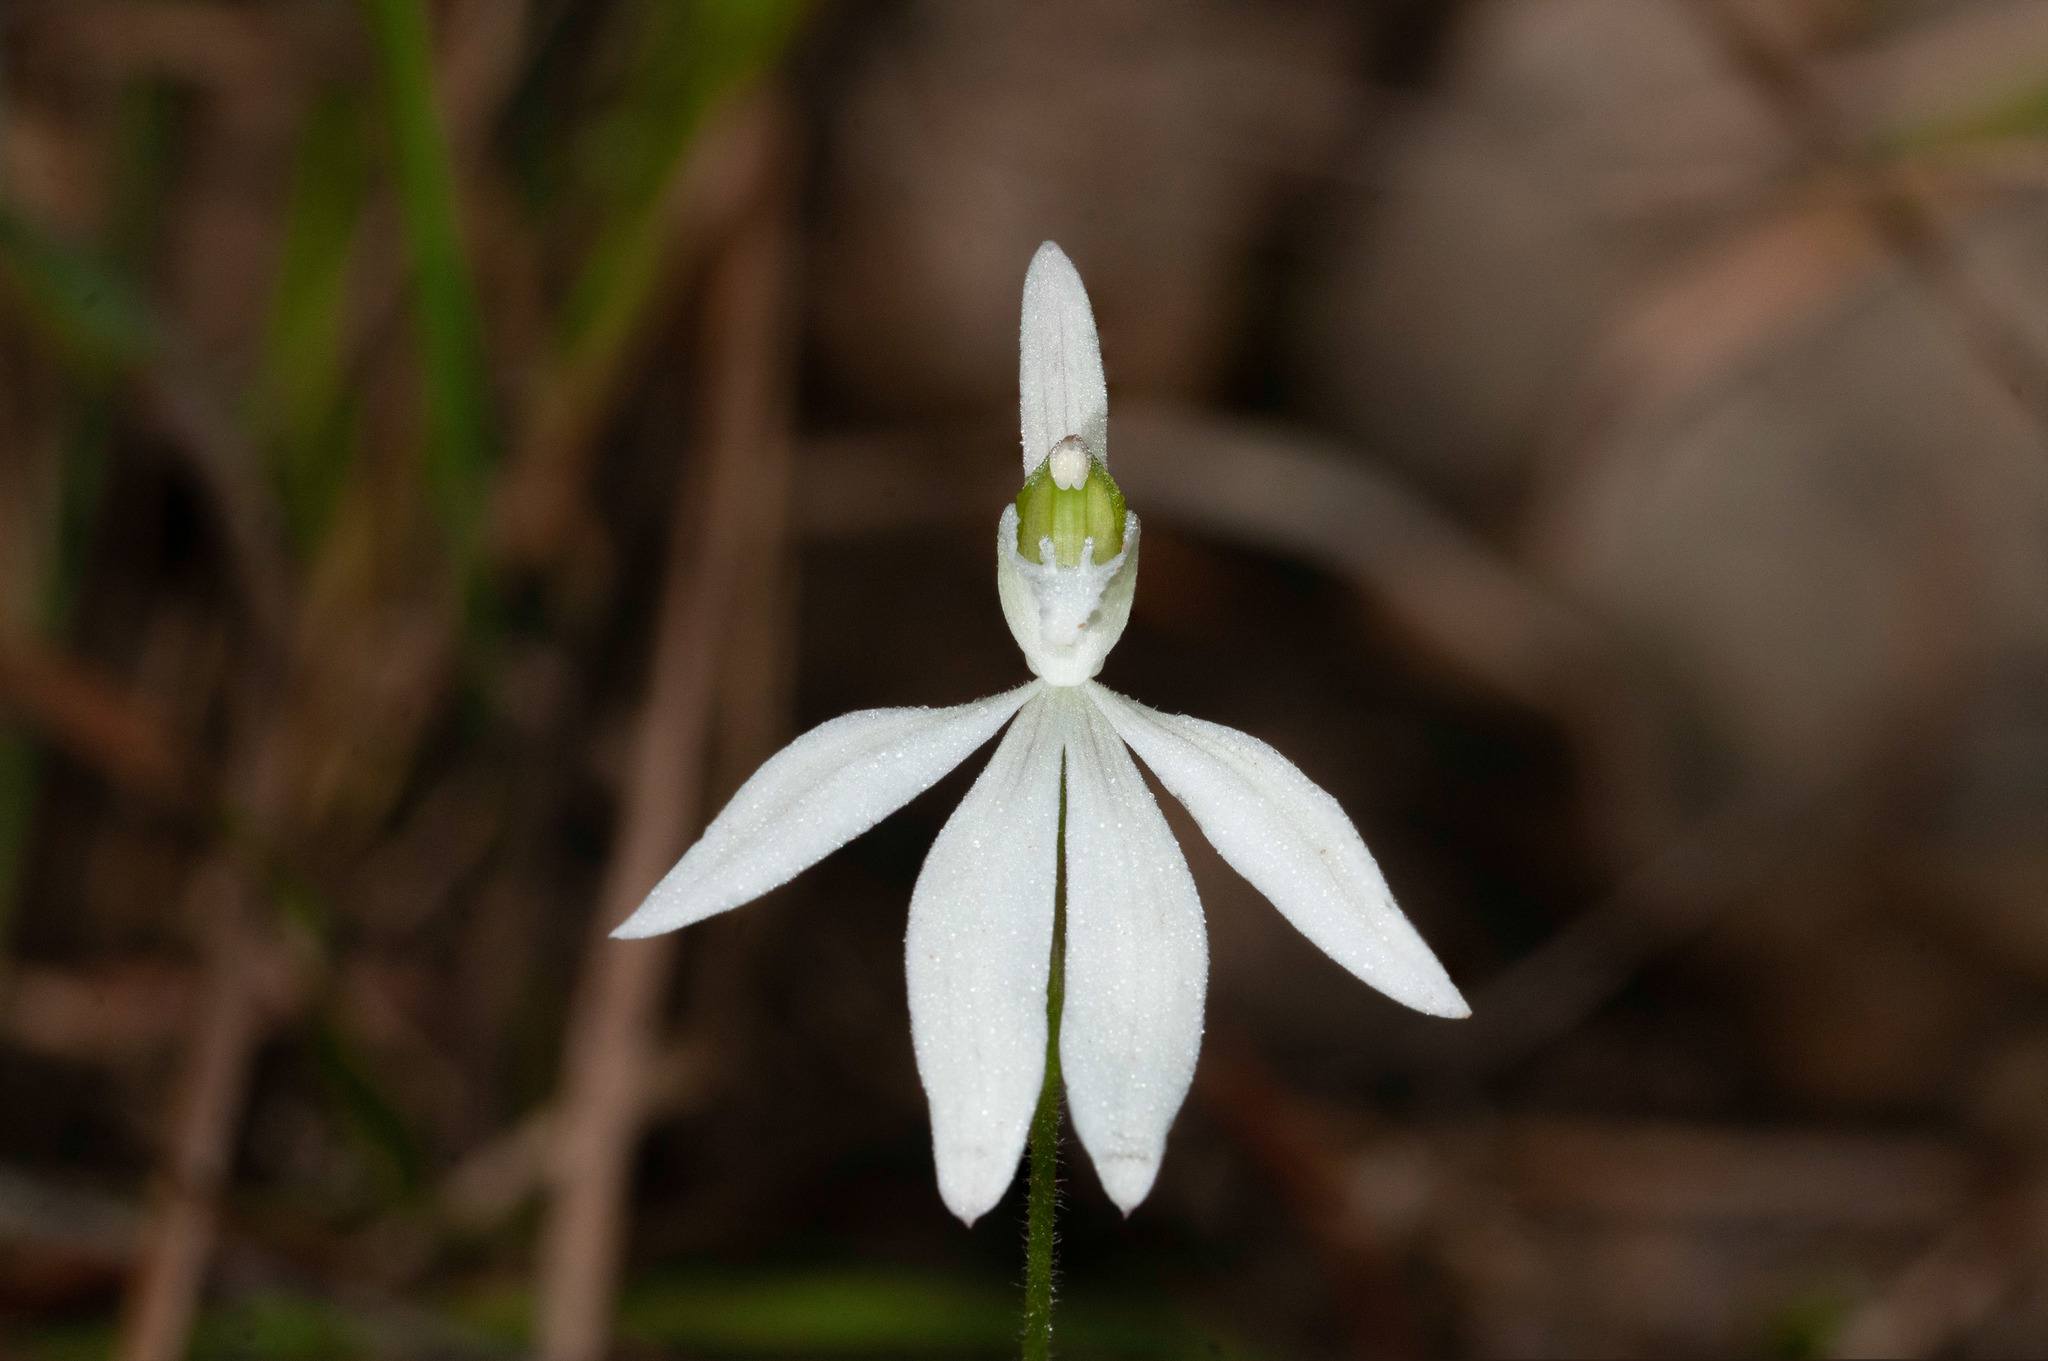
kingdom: Plantae
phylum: Tracheophyta
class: Liliopsida
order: Asparagales
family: Orchidaceae
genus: Caladenia
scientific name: Caladenia catenata
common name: White caladenia
